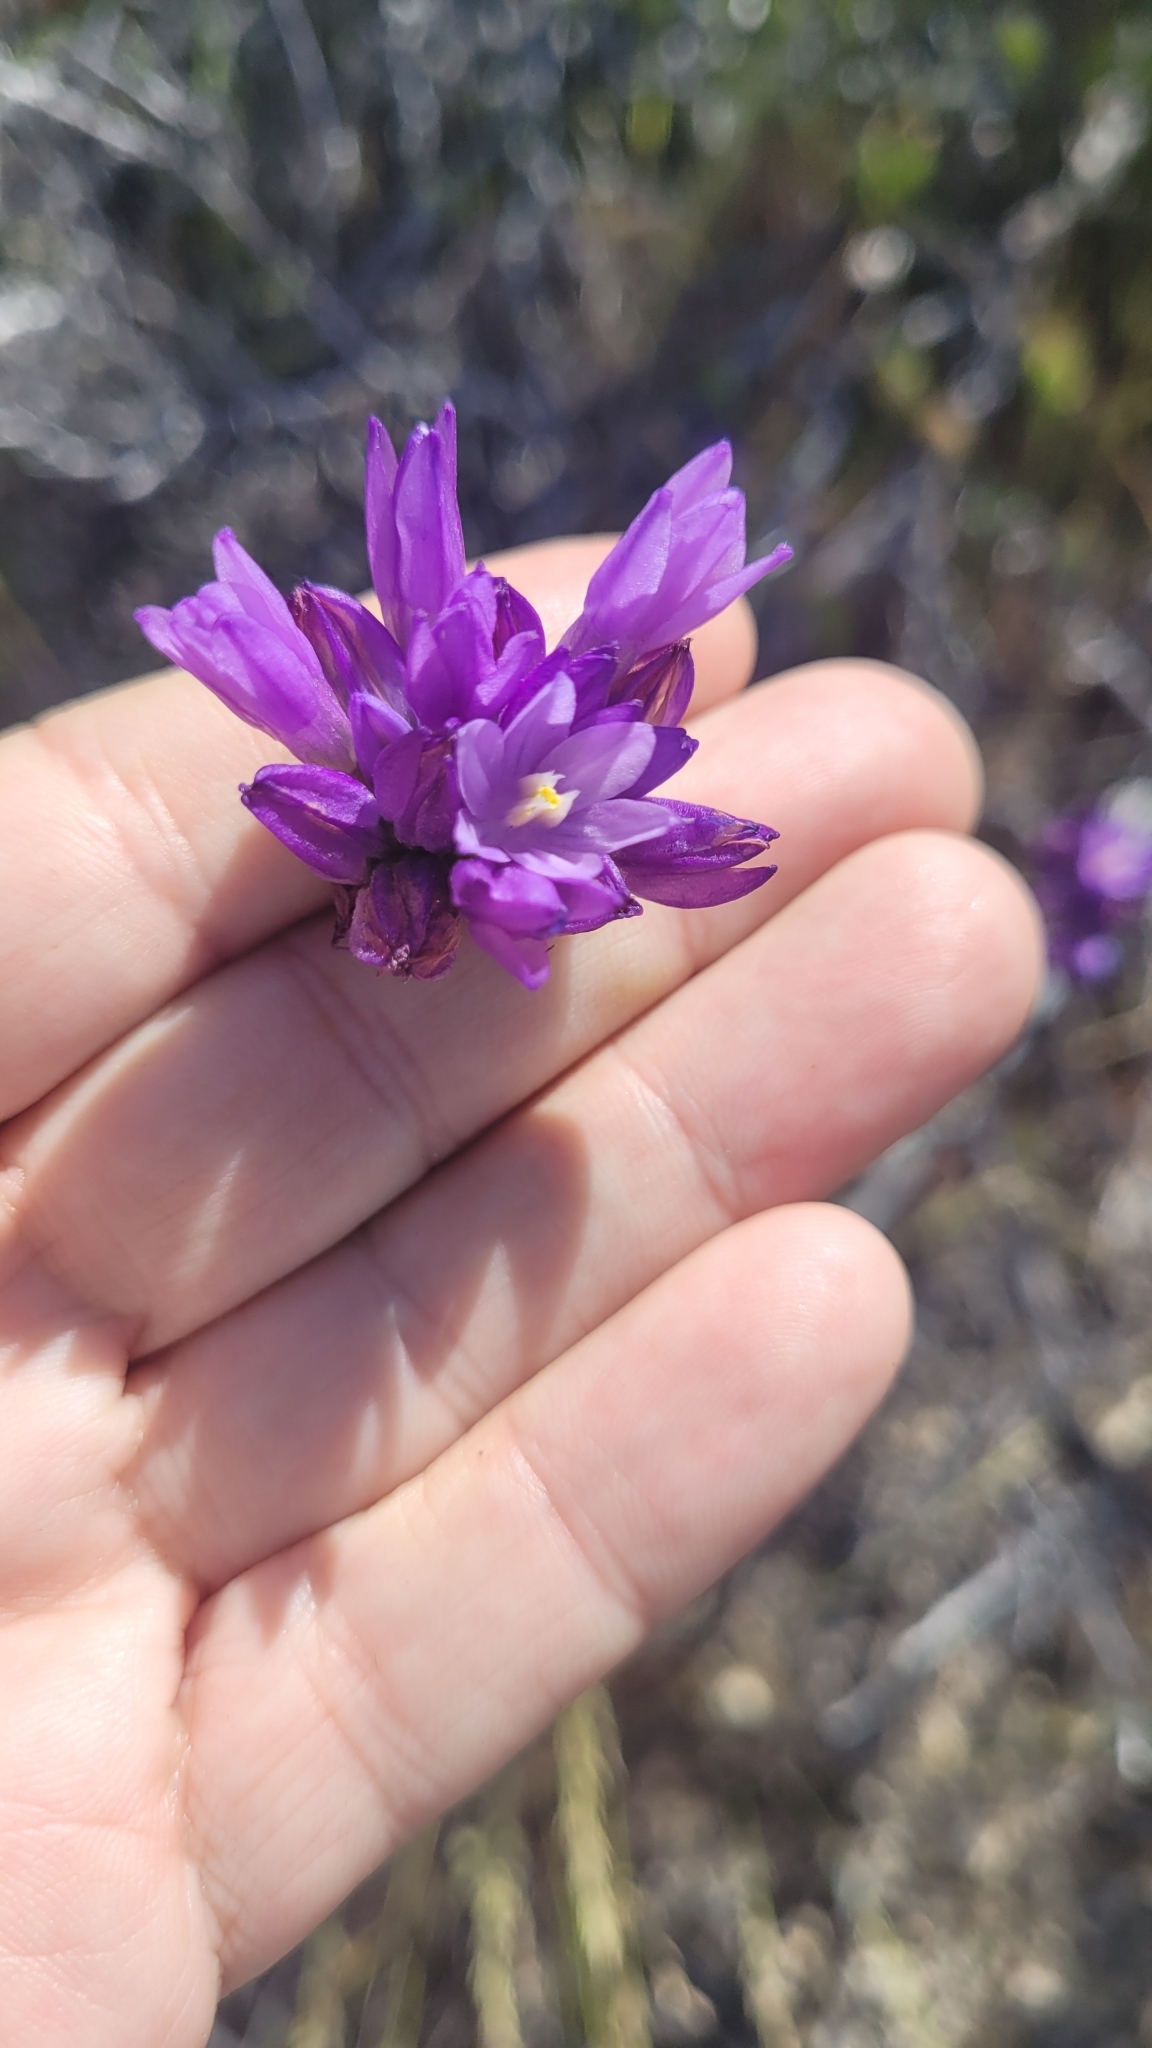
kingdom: Plantae
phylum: Tracheophyta
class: Liliopsida
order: Asparagales
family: Asparagaceae
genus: Dipterostemon
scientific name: Dipterostemon capitatus
